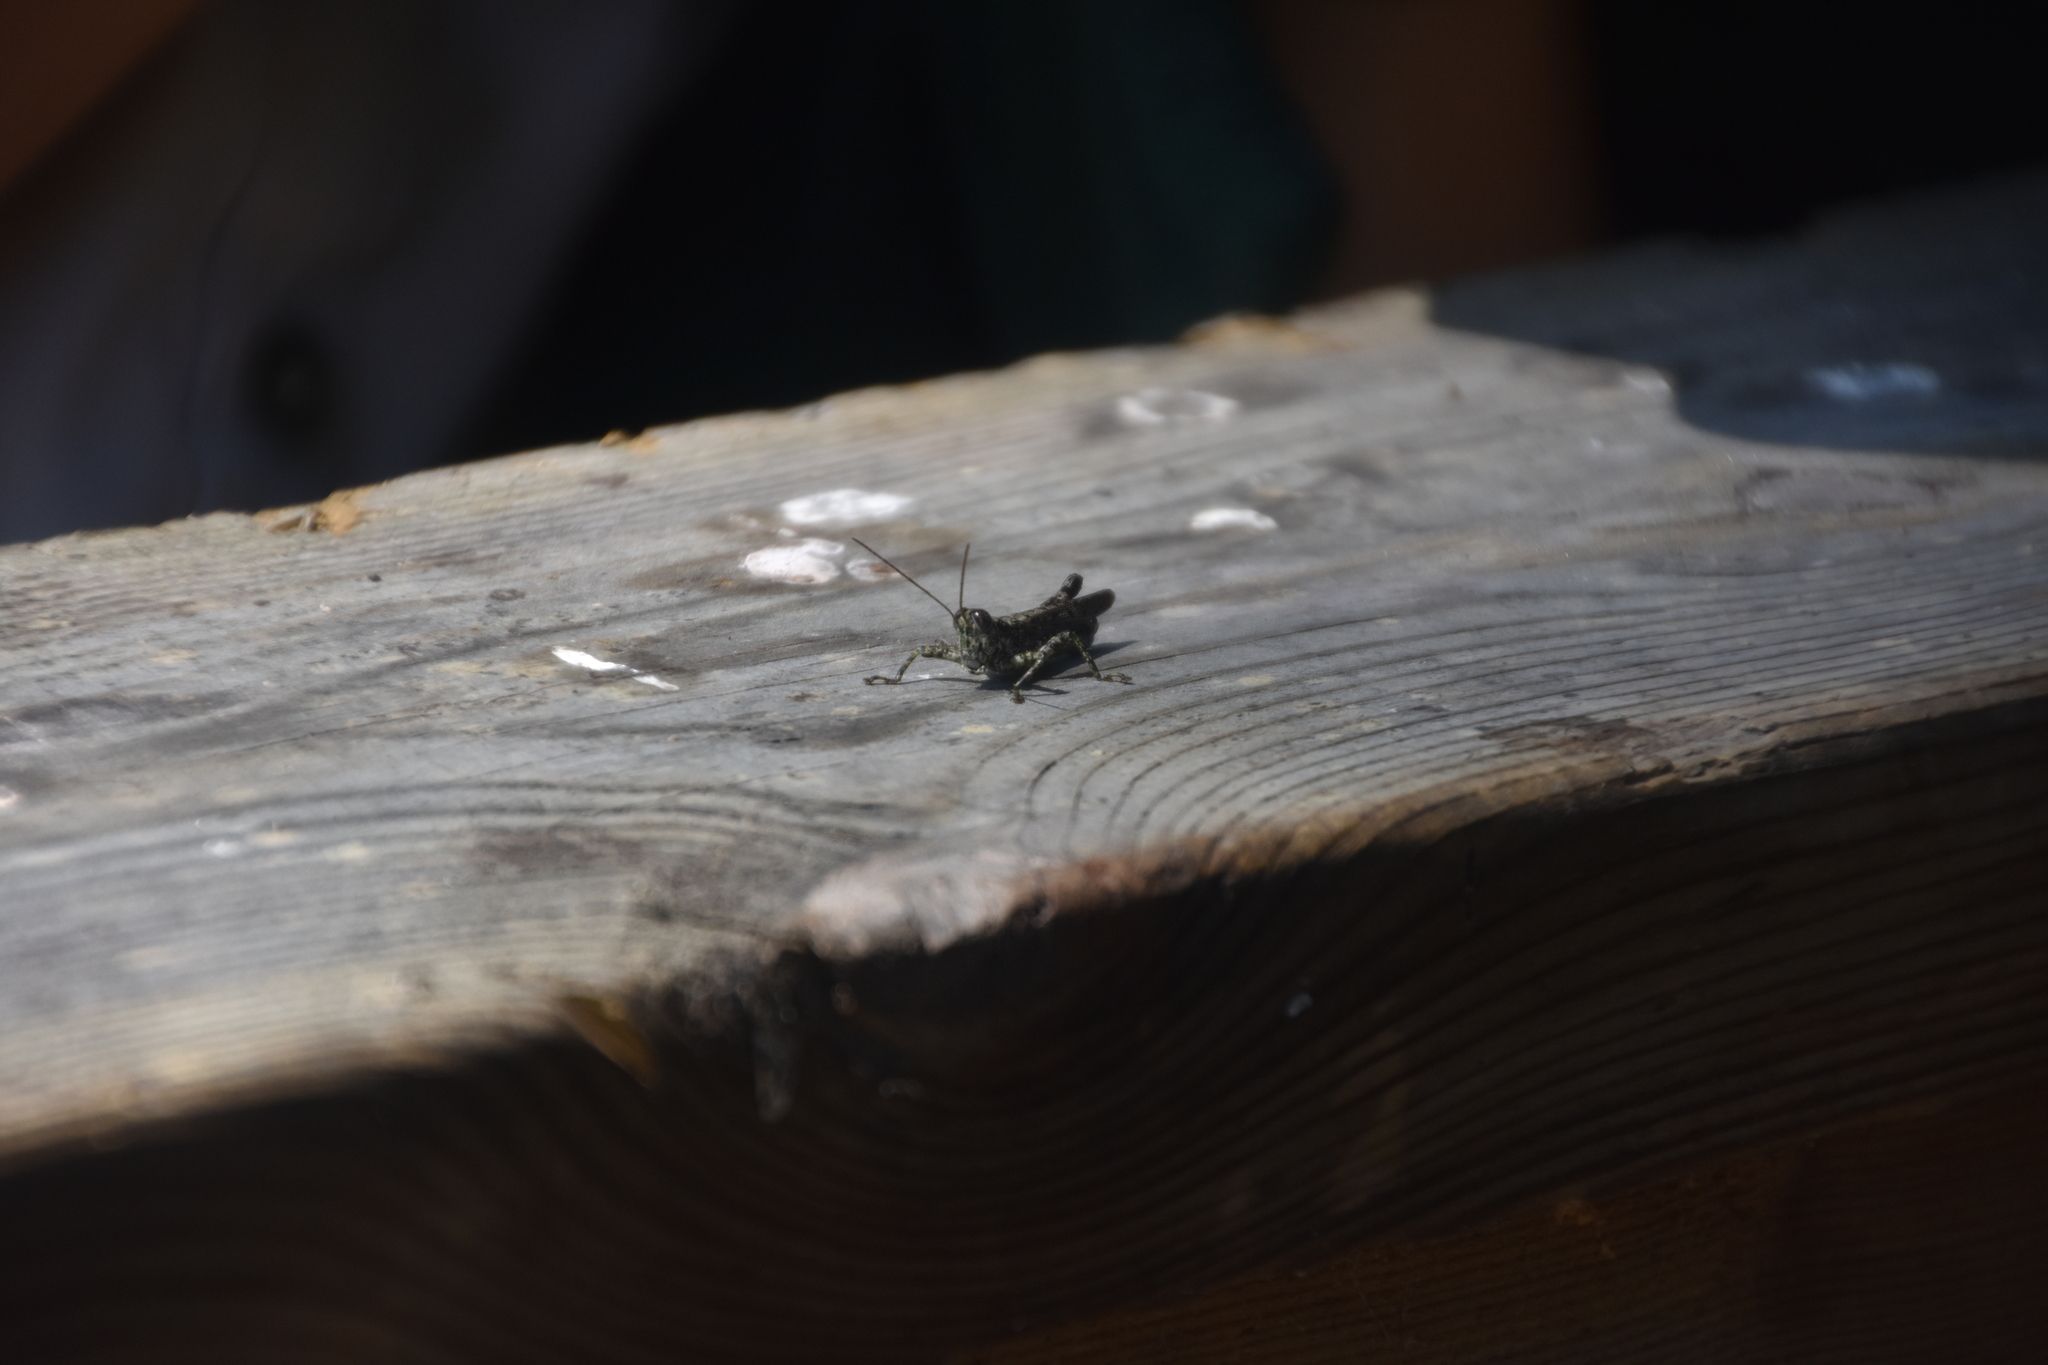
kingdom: Animalia
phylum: Arthropoda
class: Insecta
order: Orthoptera
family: Acrididae
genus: Melanoplus
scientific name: Melanoplus punctulatus
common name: Pine-tree spur-throat grasshopper
